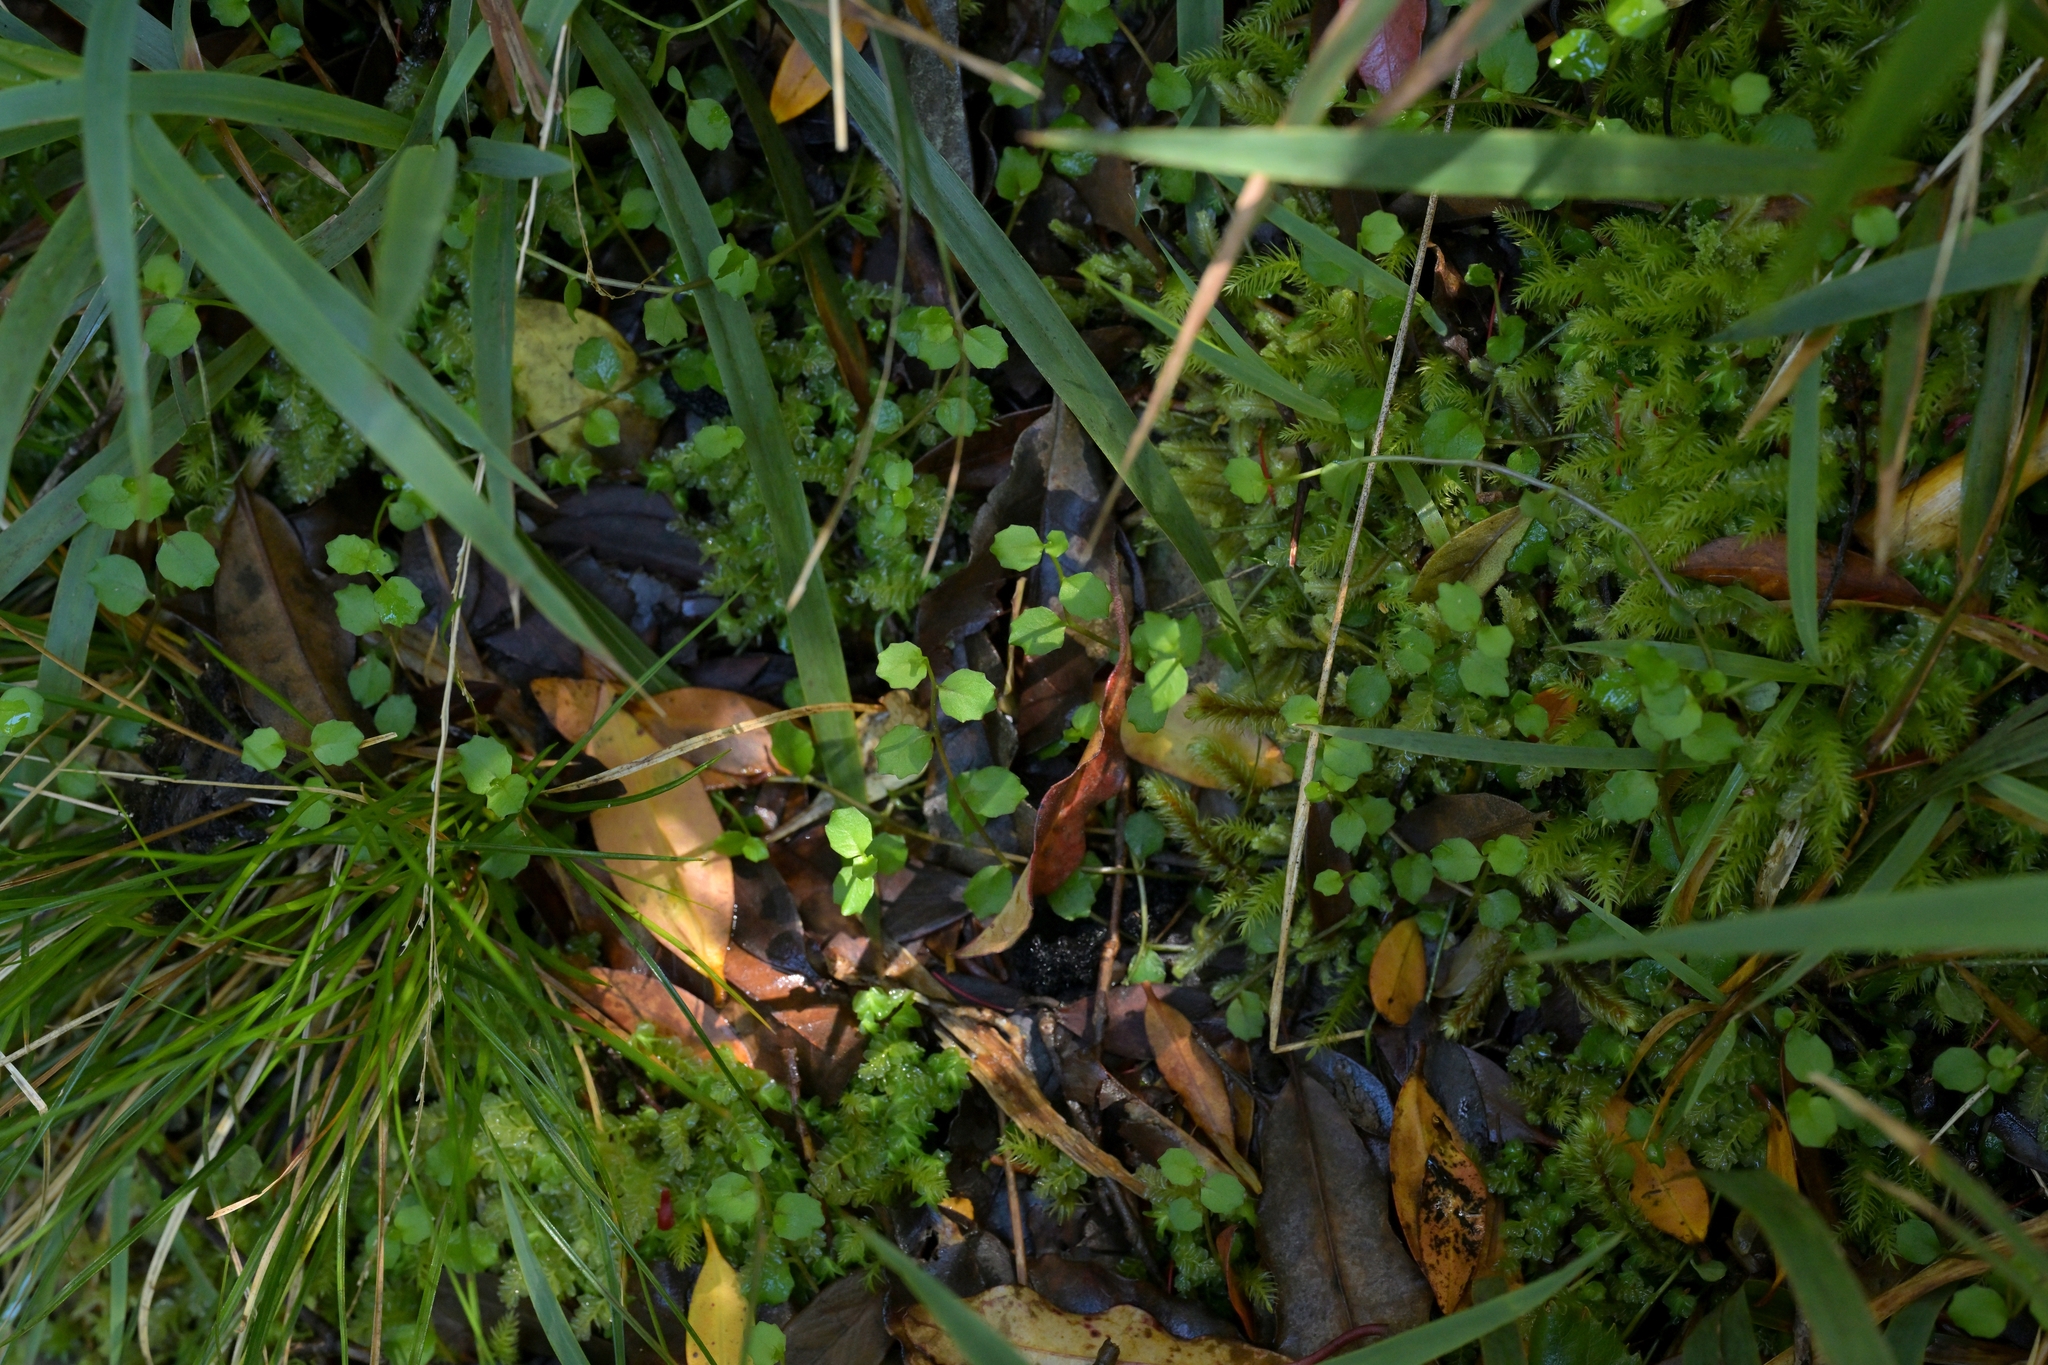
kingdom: Plantae
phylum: Tracheophyta
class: Magnoliopsida
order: Asterales
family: Campanulaceae
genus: Lobelia
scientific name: Lobelia angulata
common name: Lawn lobelia
